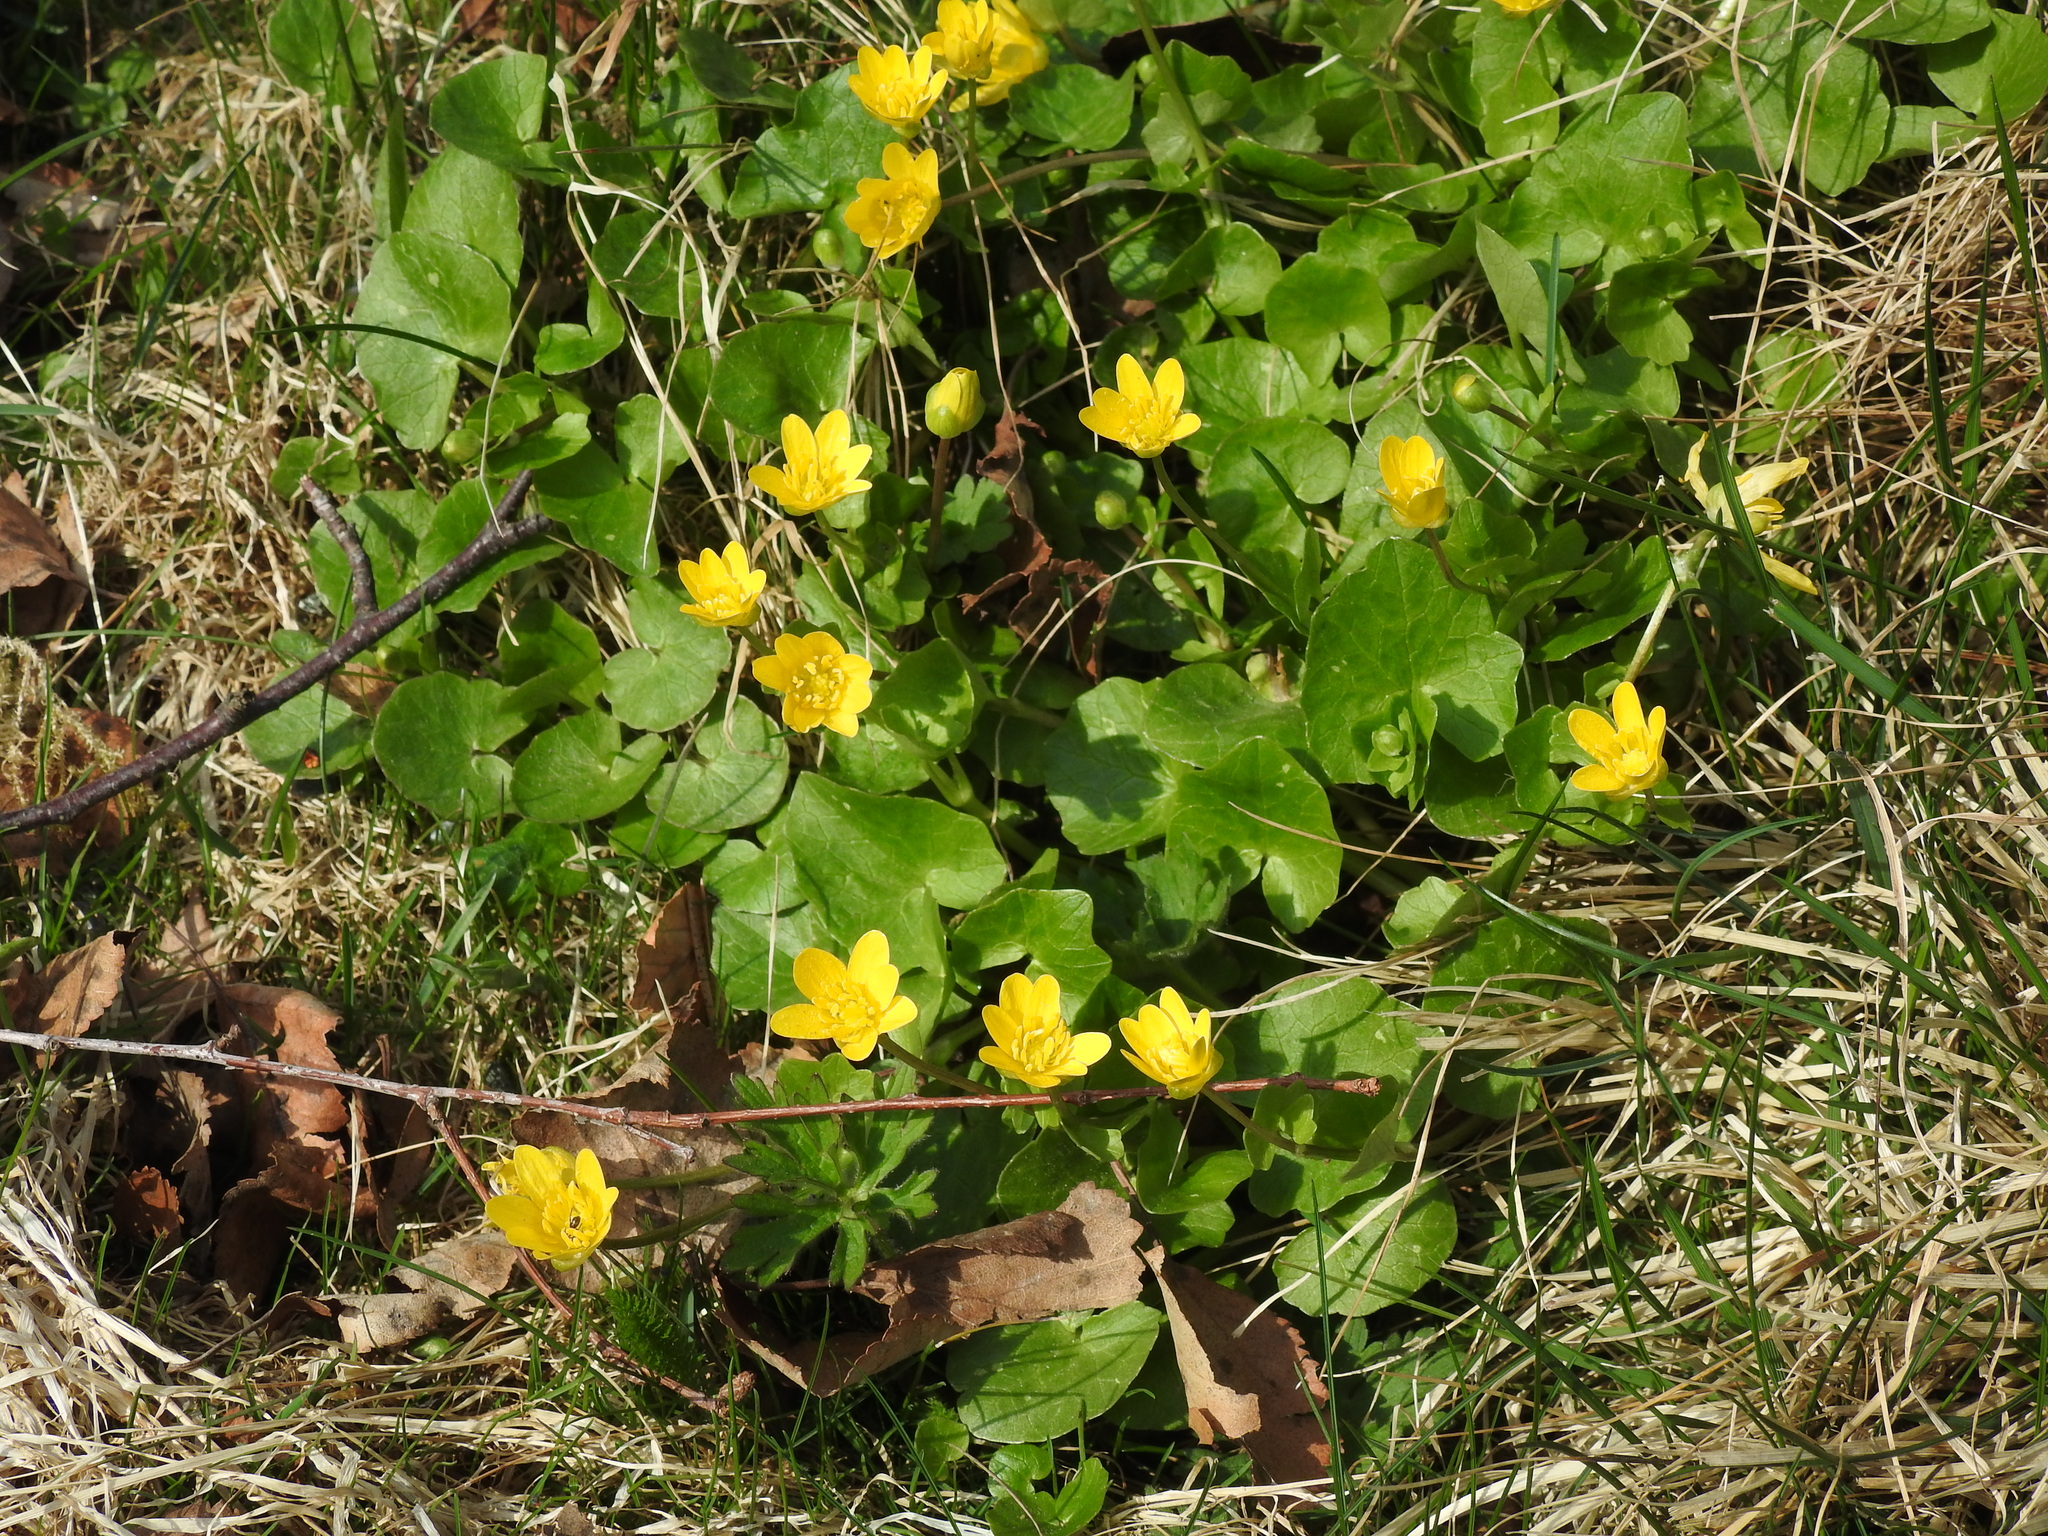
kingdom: Plantae
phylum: Tracheophyta
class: Magnoliopsida
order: Ranunculales
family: Ranunculaceae
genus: Ficaria
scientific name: Ficaria verna
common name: Lesser celandine
